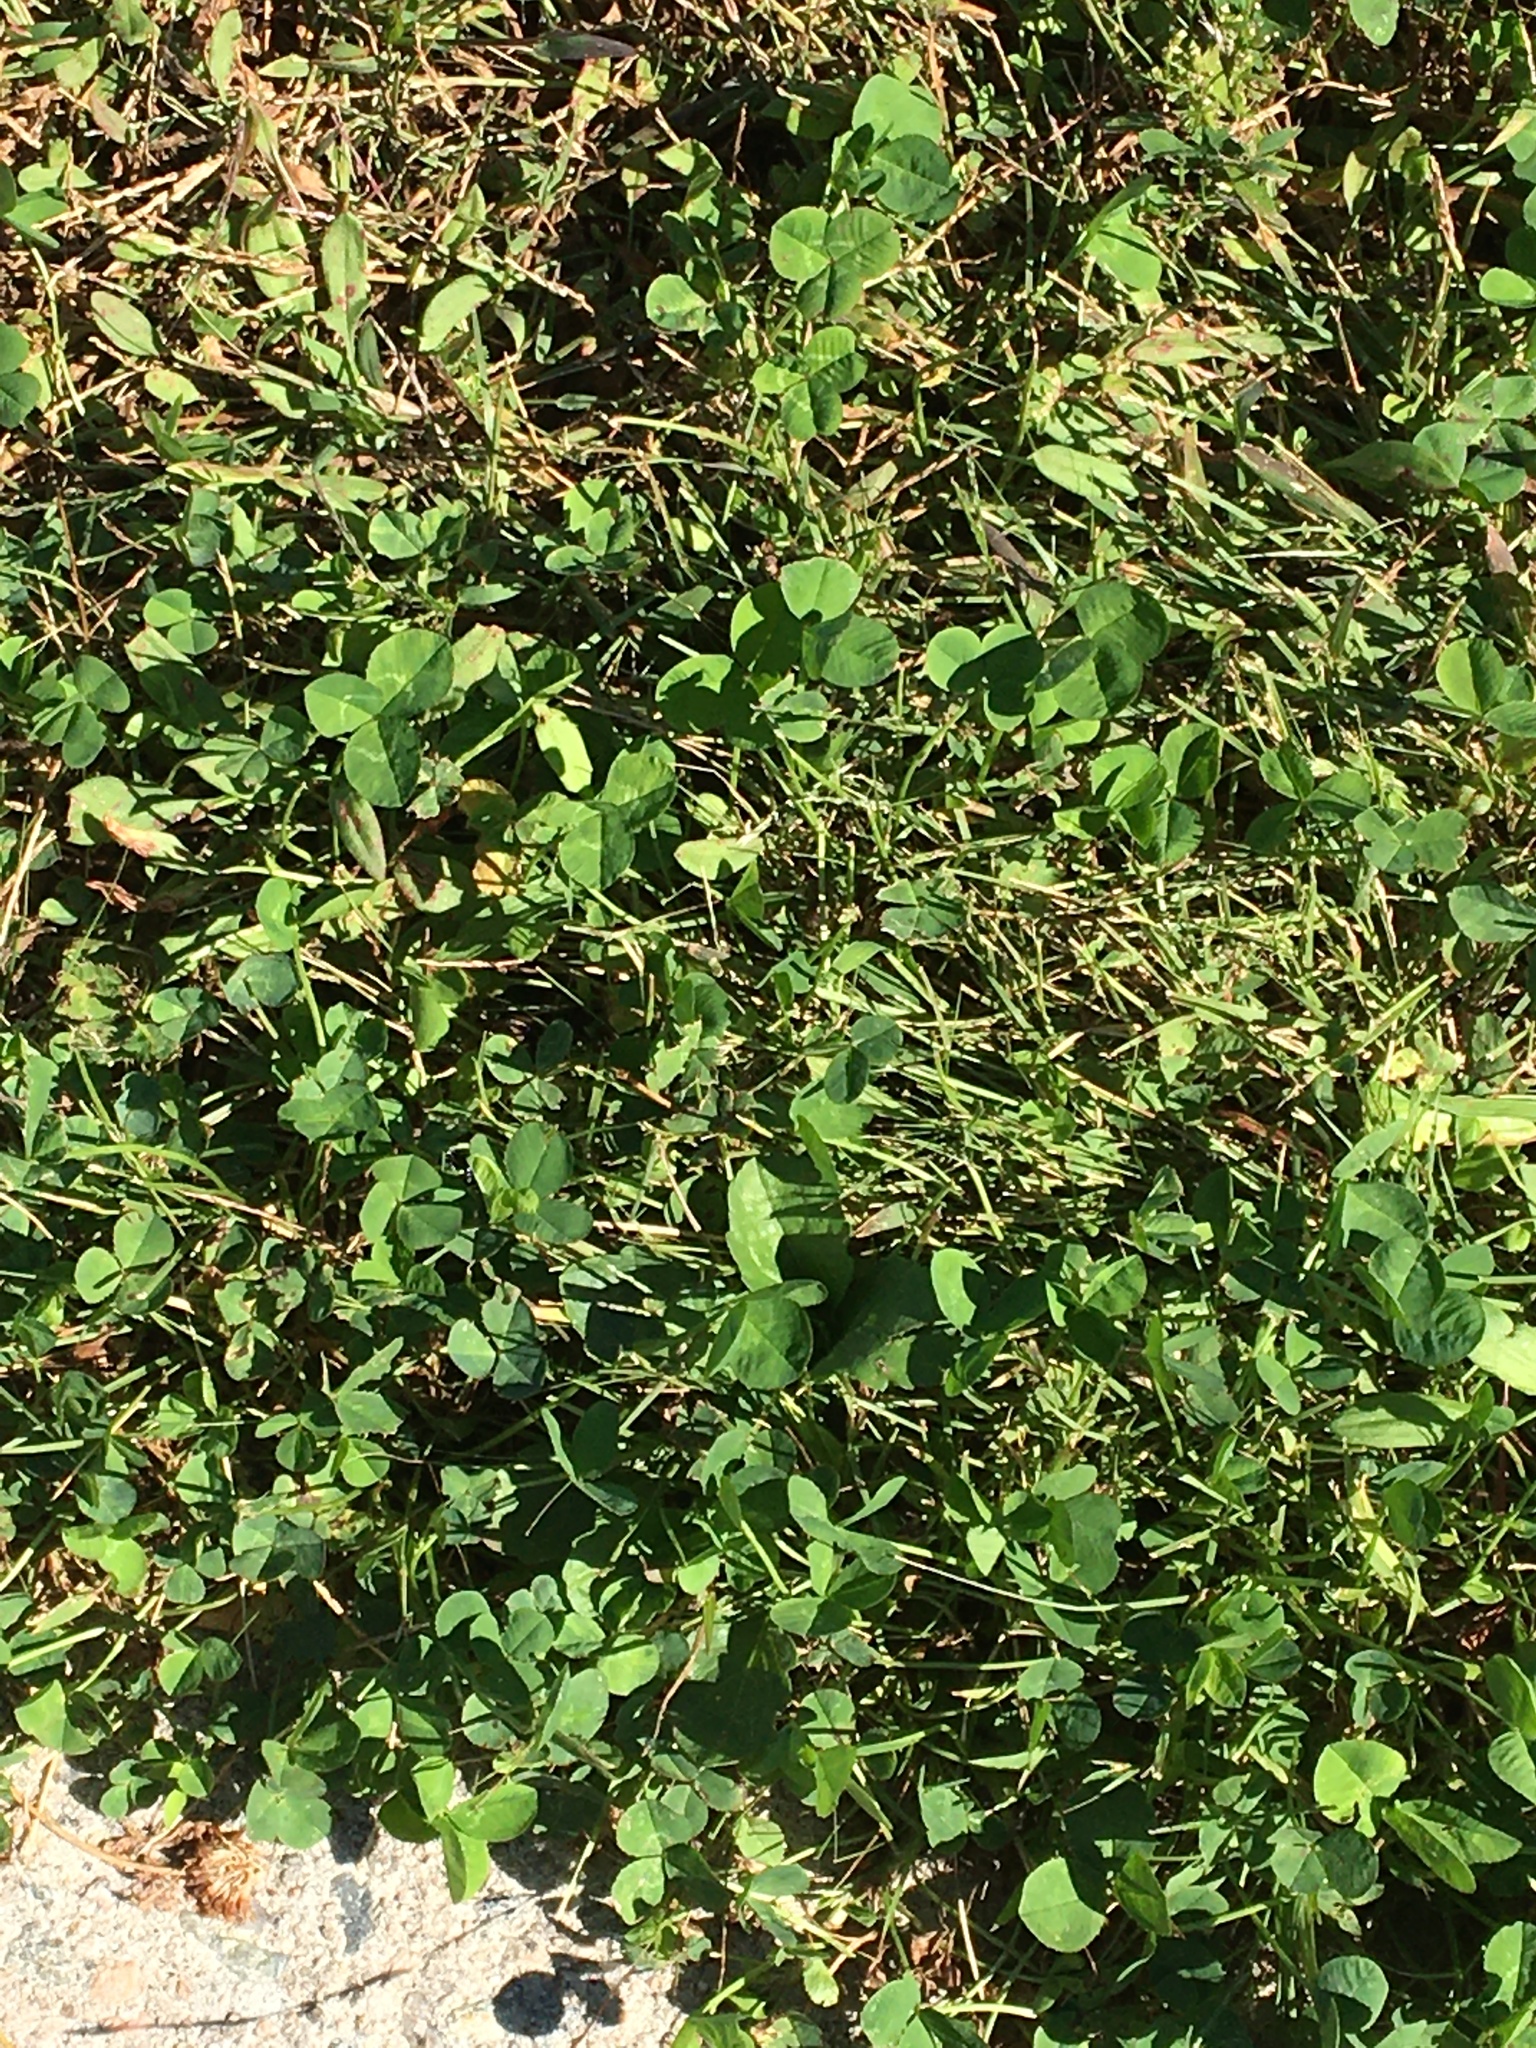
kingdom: Plantae
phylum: Tracheophyta
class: Magnoliopsida
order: Fabales
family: Fabaceae
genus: Trifolium
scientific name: Trifolium repens
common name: White clover
